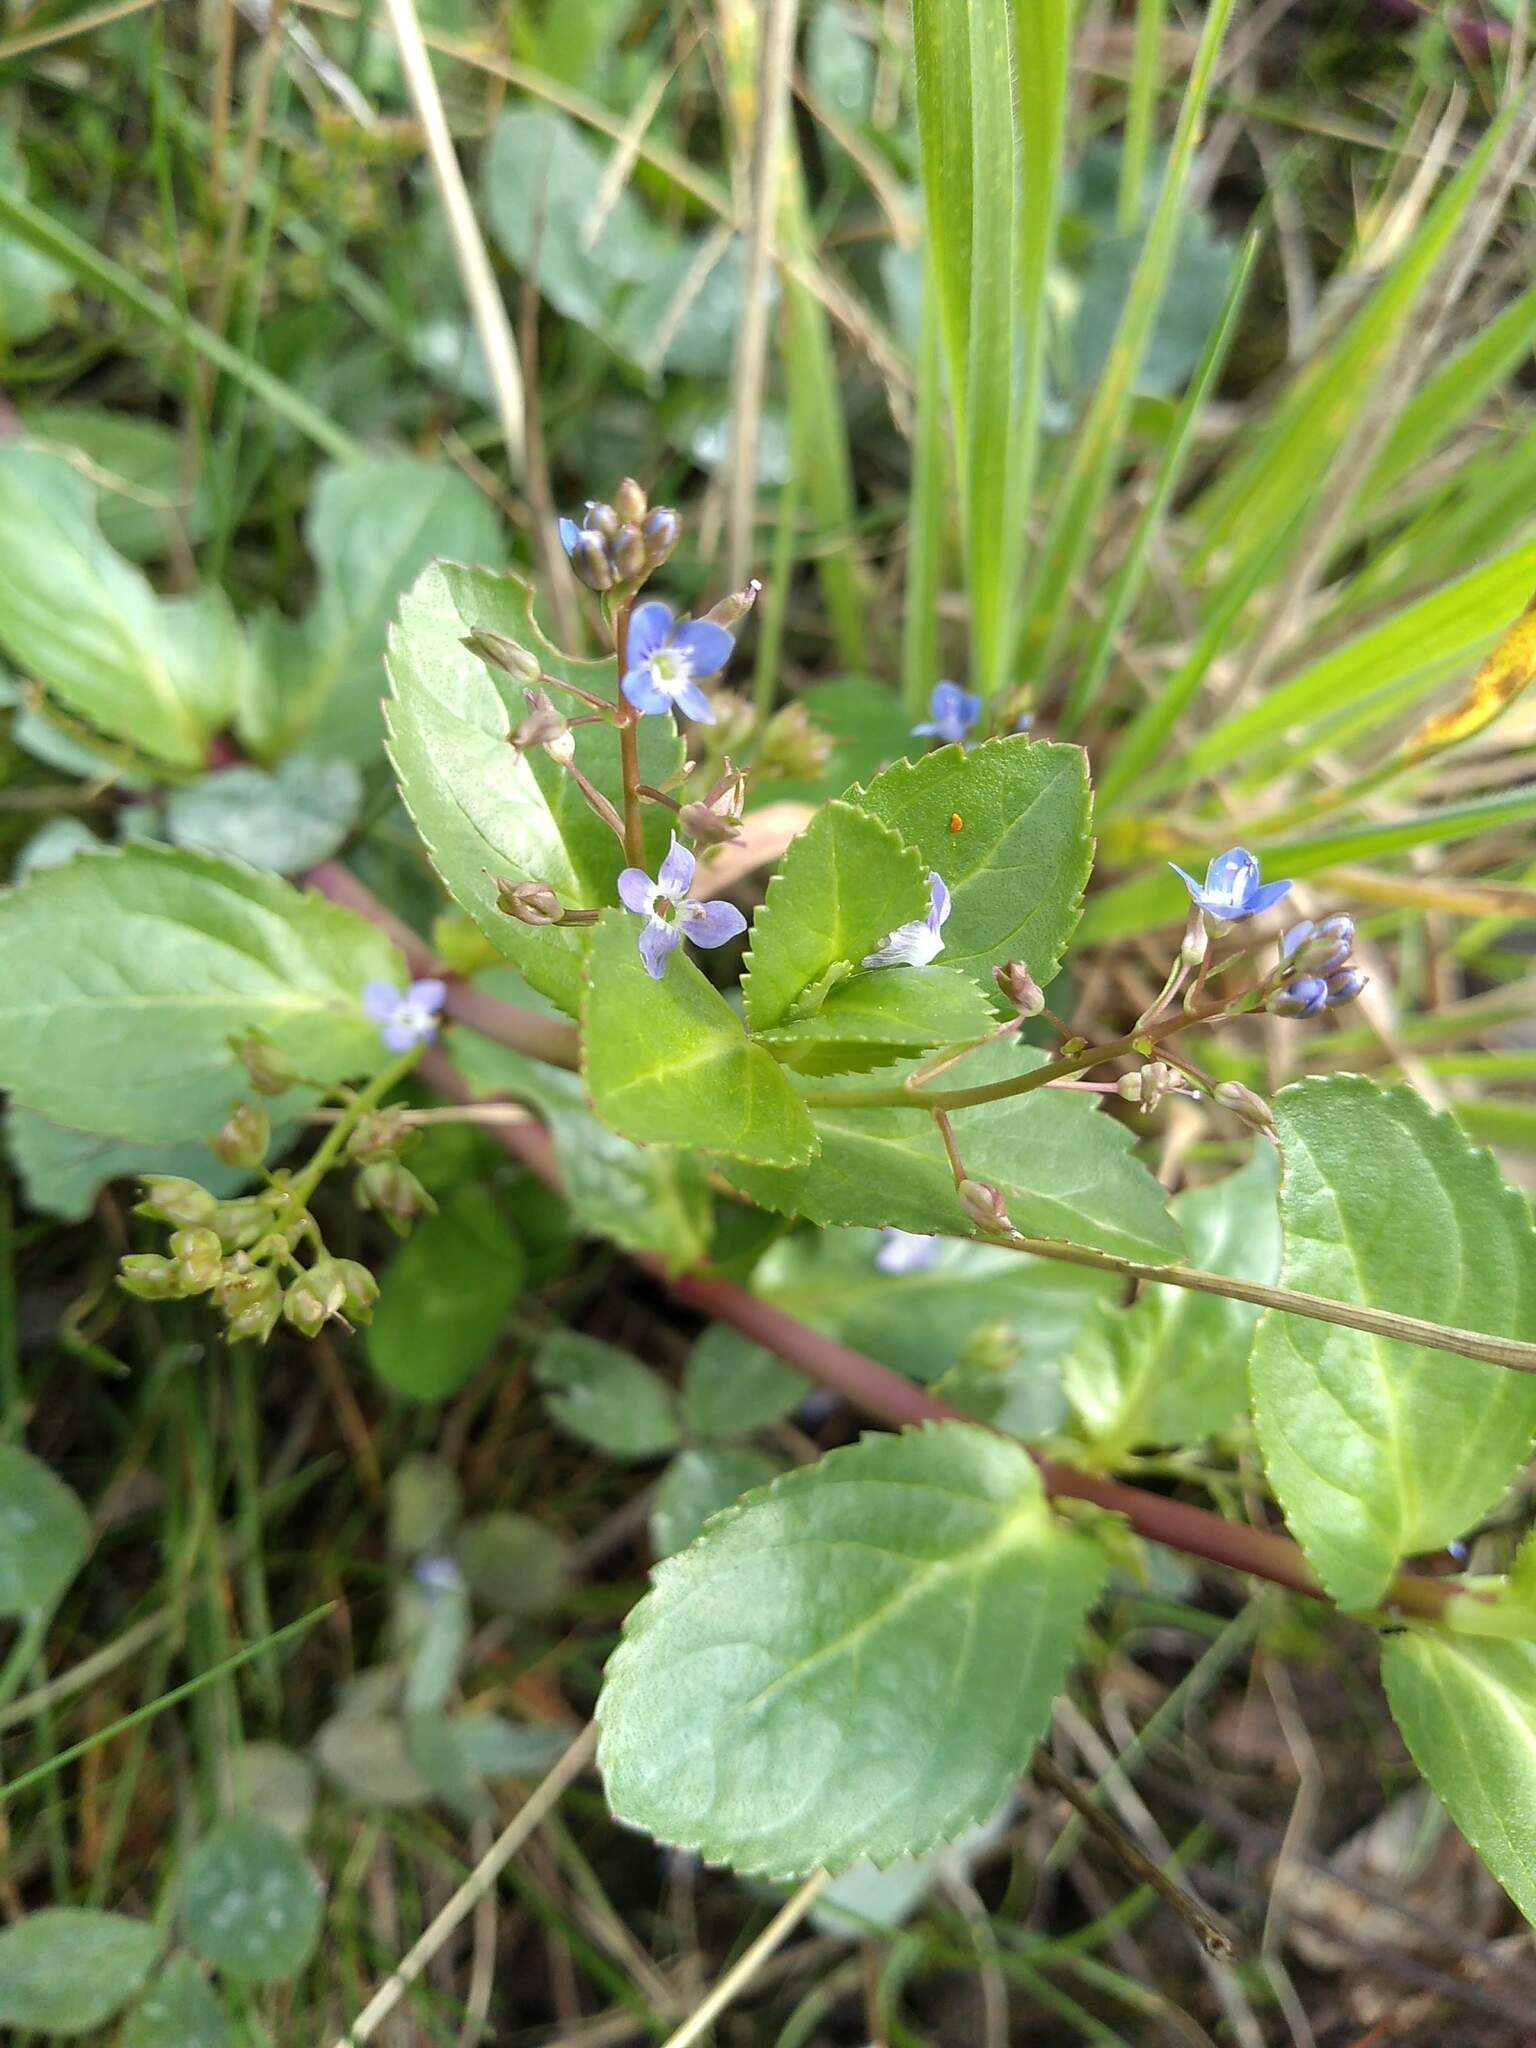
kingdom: Plantae
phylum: Tracheophyta
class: Magnoliopsida
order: Lamiales
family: Plantaginaceae
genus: Veronica
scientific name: Veronica beccabunga
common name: Brooklime
